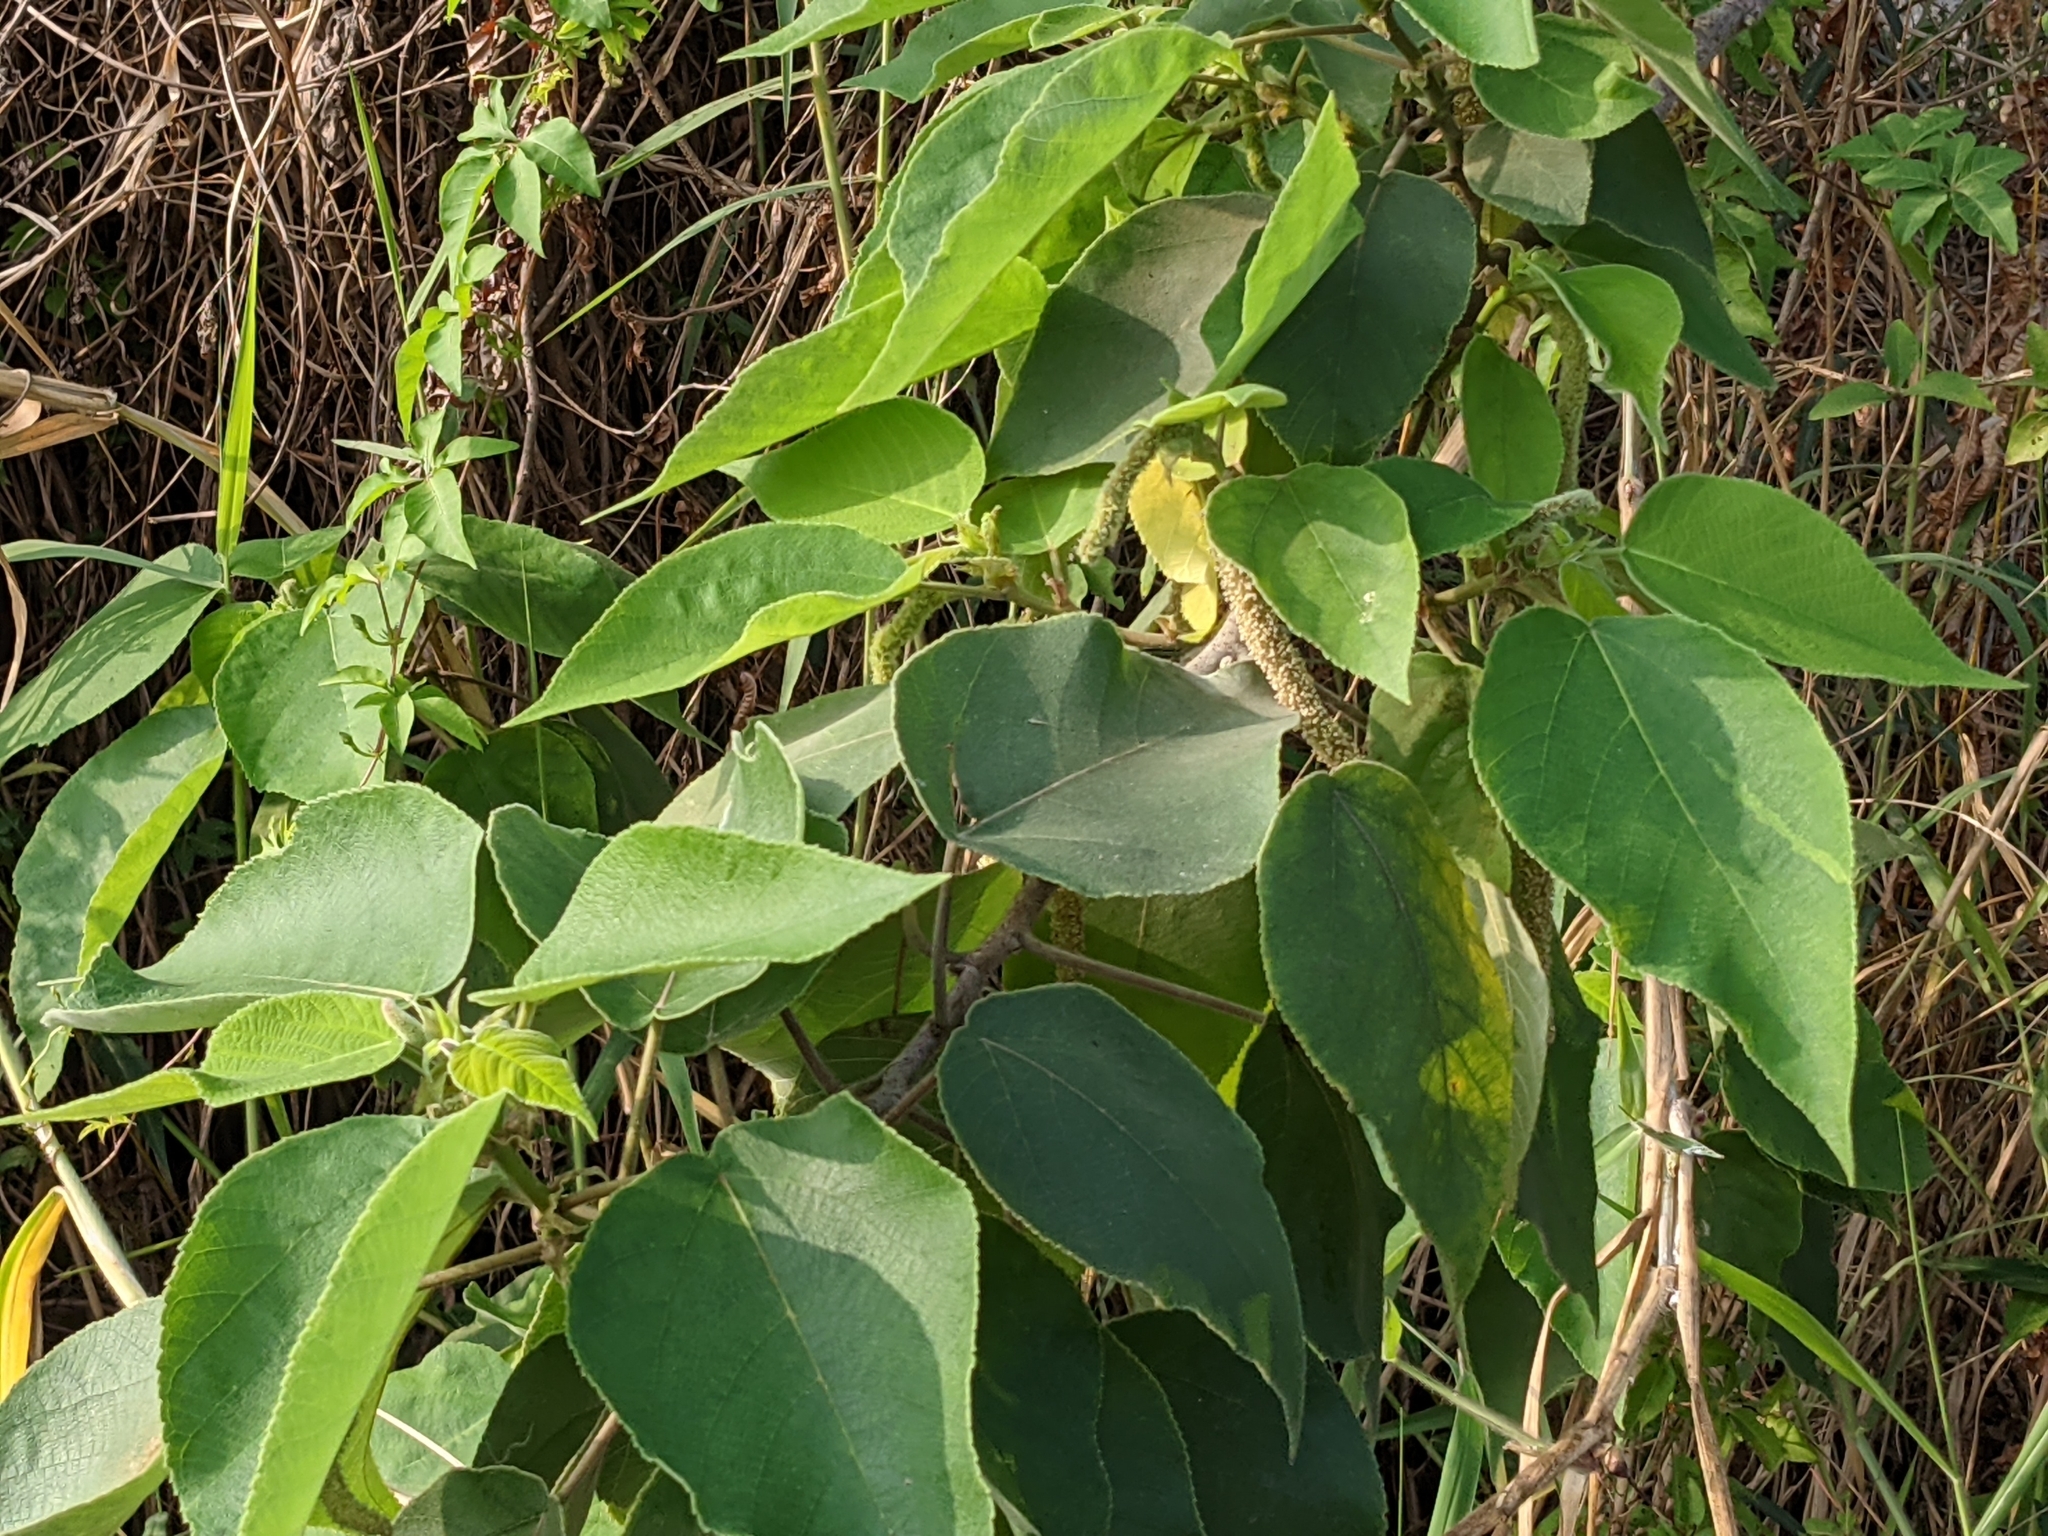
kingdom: Plantae
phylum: Tracheophyta
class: Magnoliopsida
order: Rosales
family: Moraceae
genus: Broussonetia
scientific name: Broussonetia papyrifera
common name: Paper mulberry
